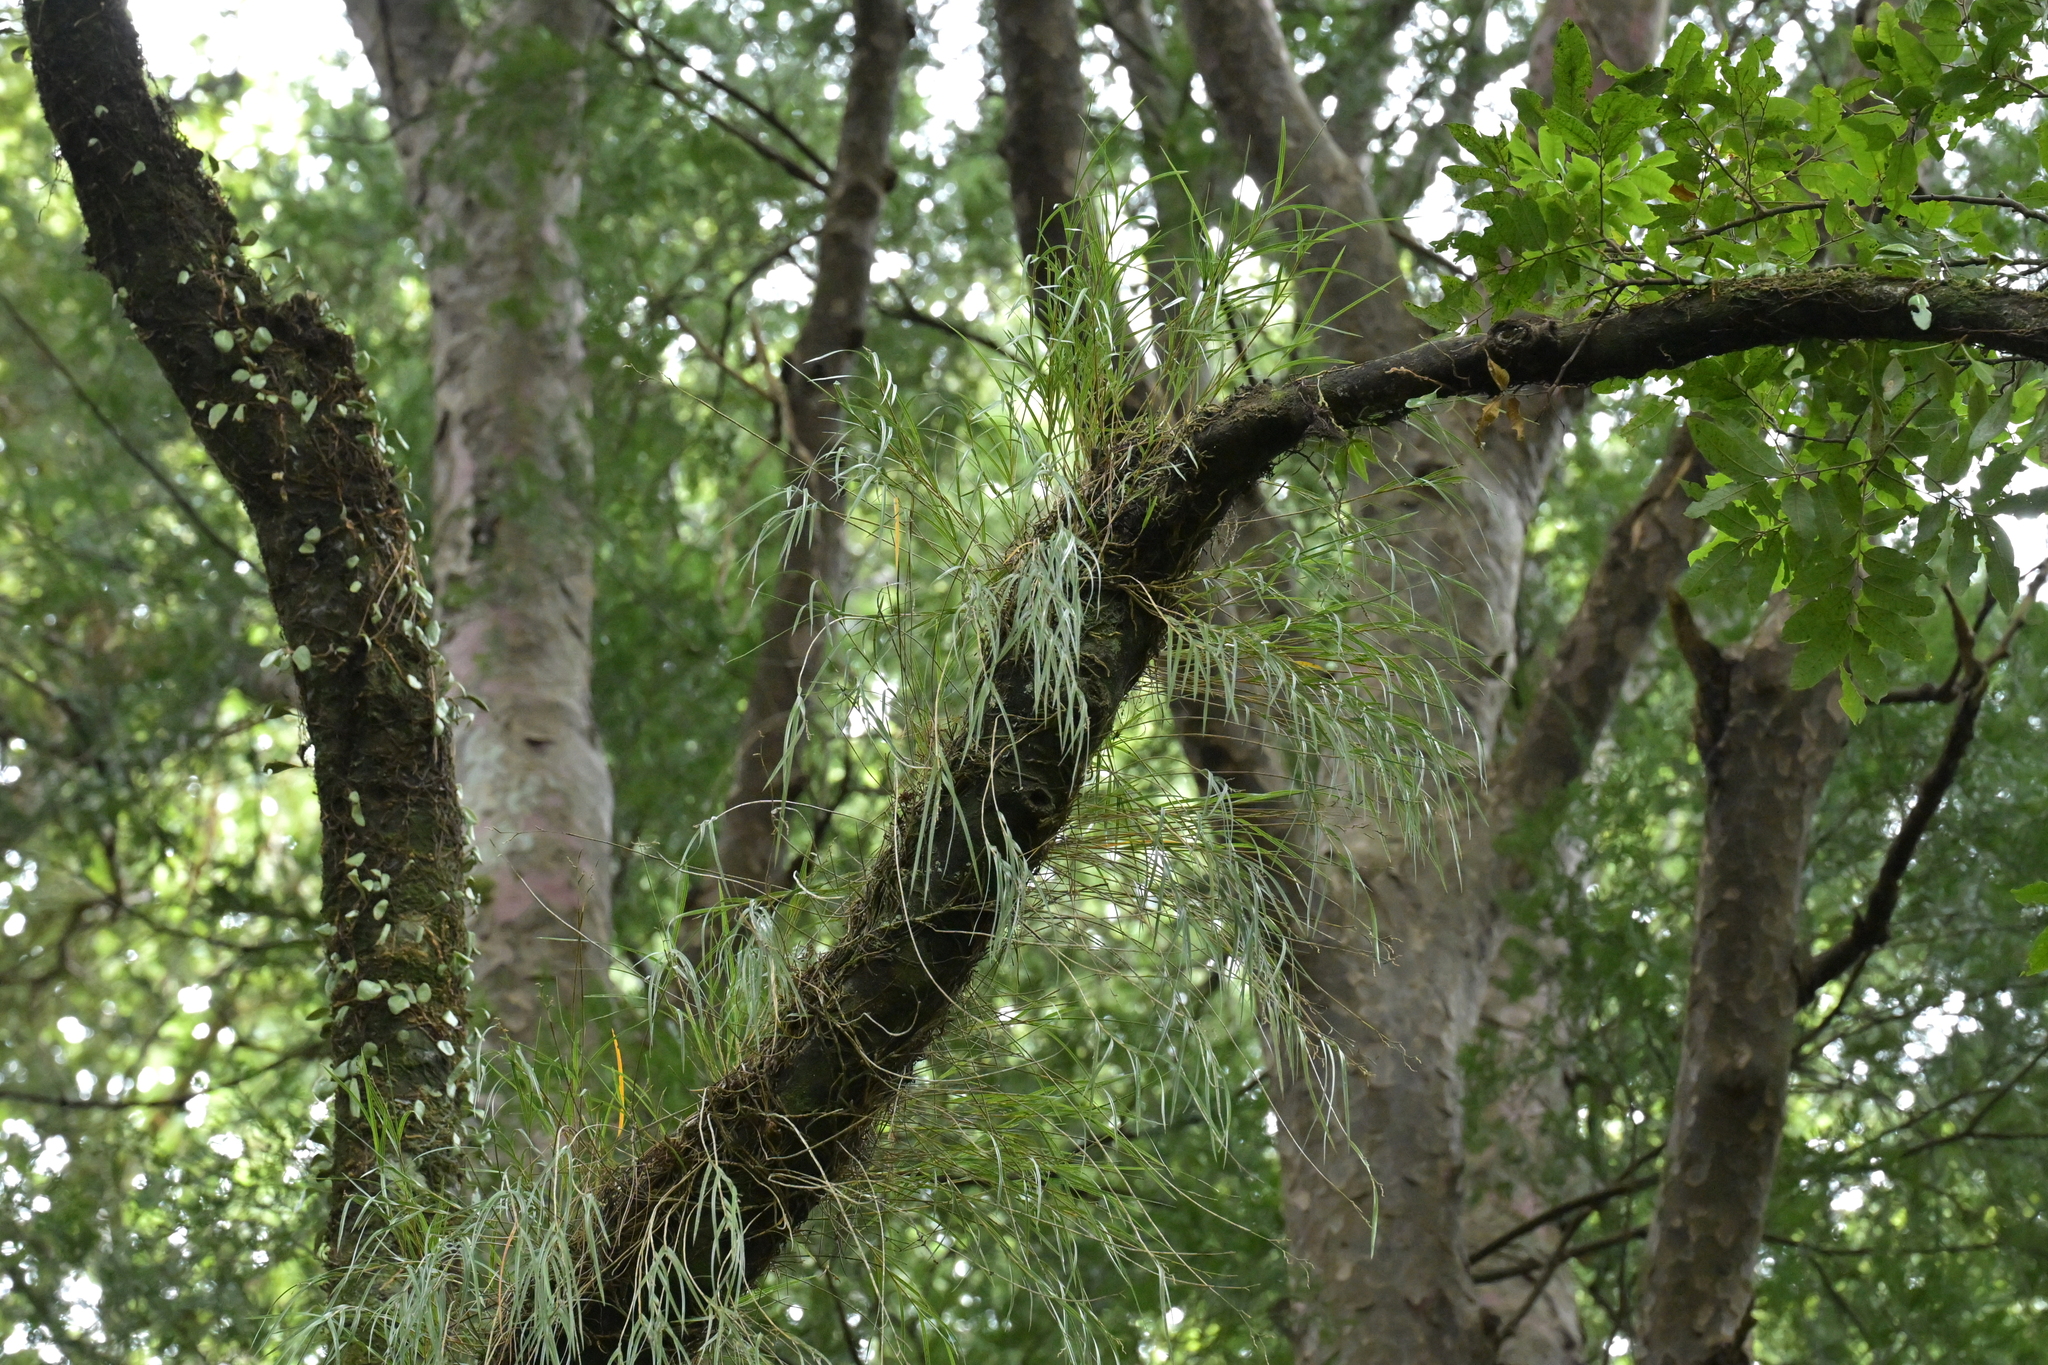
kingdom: Plantae
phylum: Tracheophyta
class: Liliopsida
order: Asparagales
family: Orchidaceae
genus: Earina
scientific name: Earina mucronata
